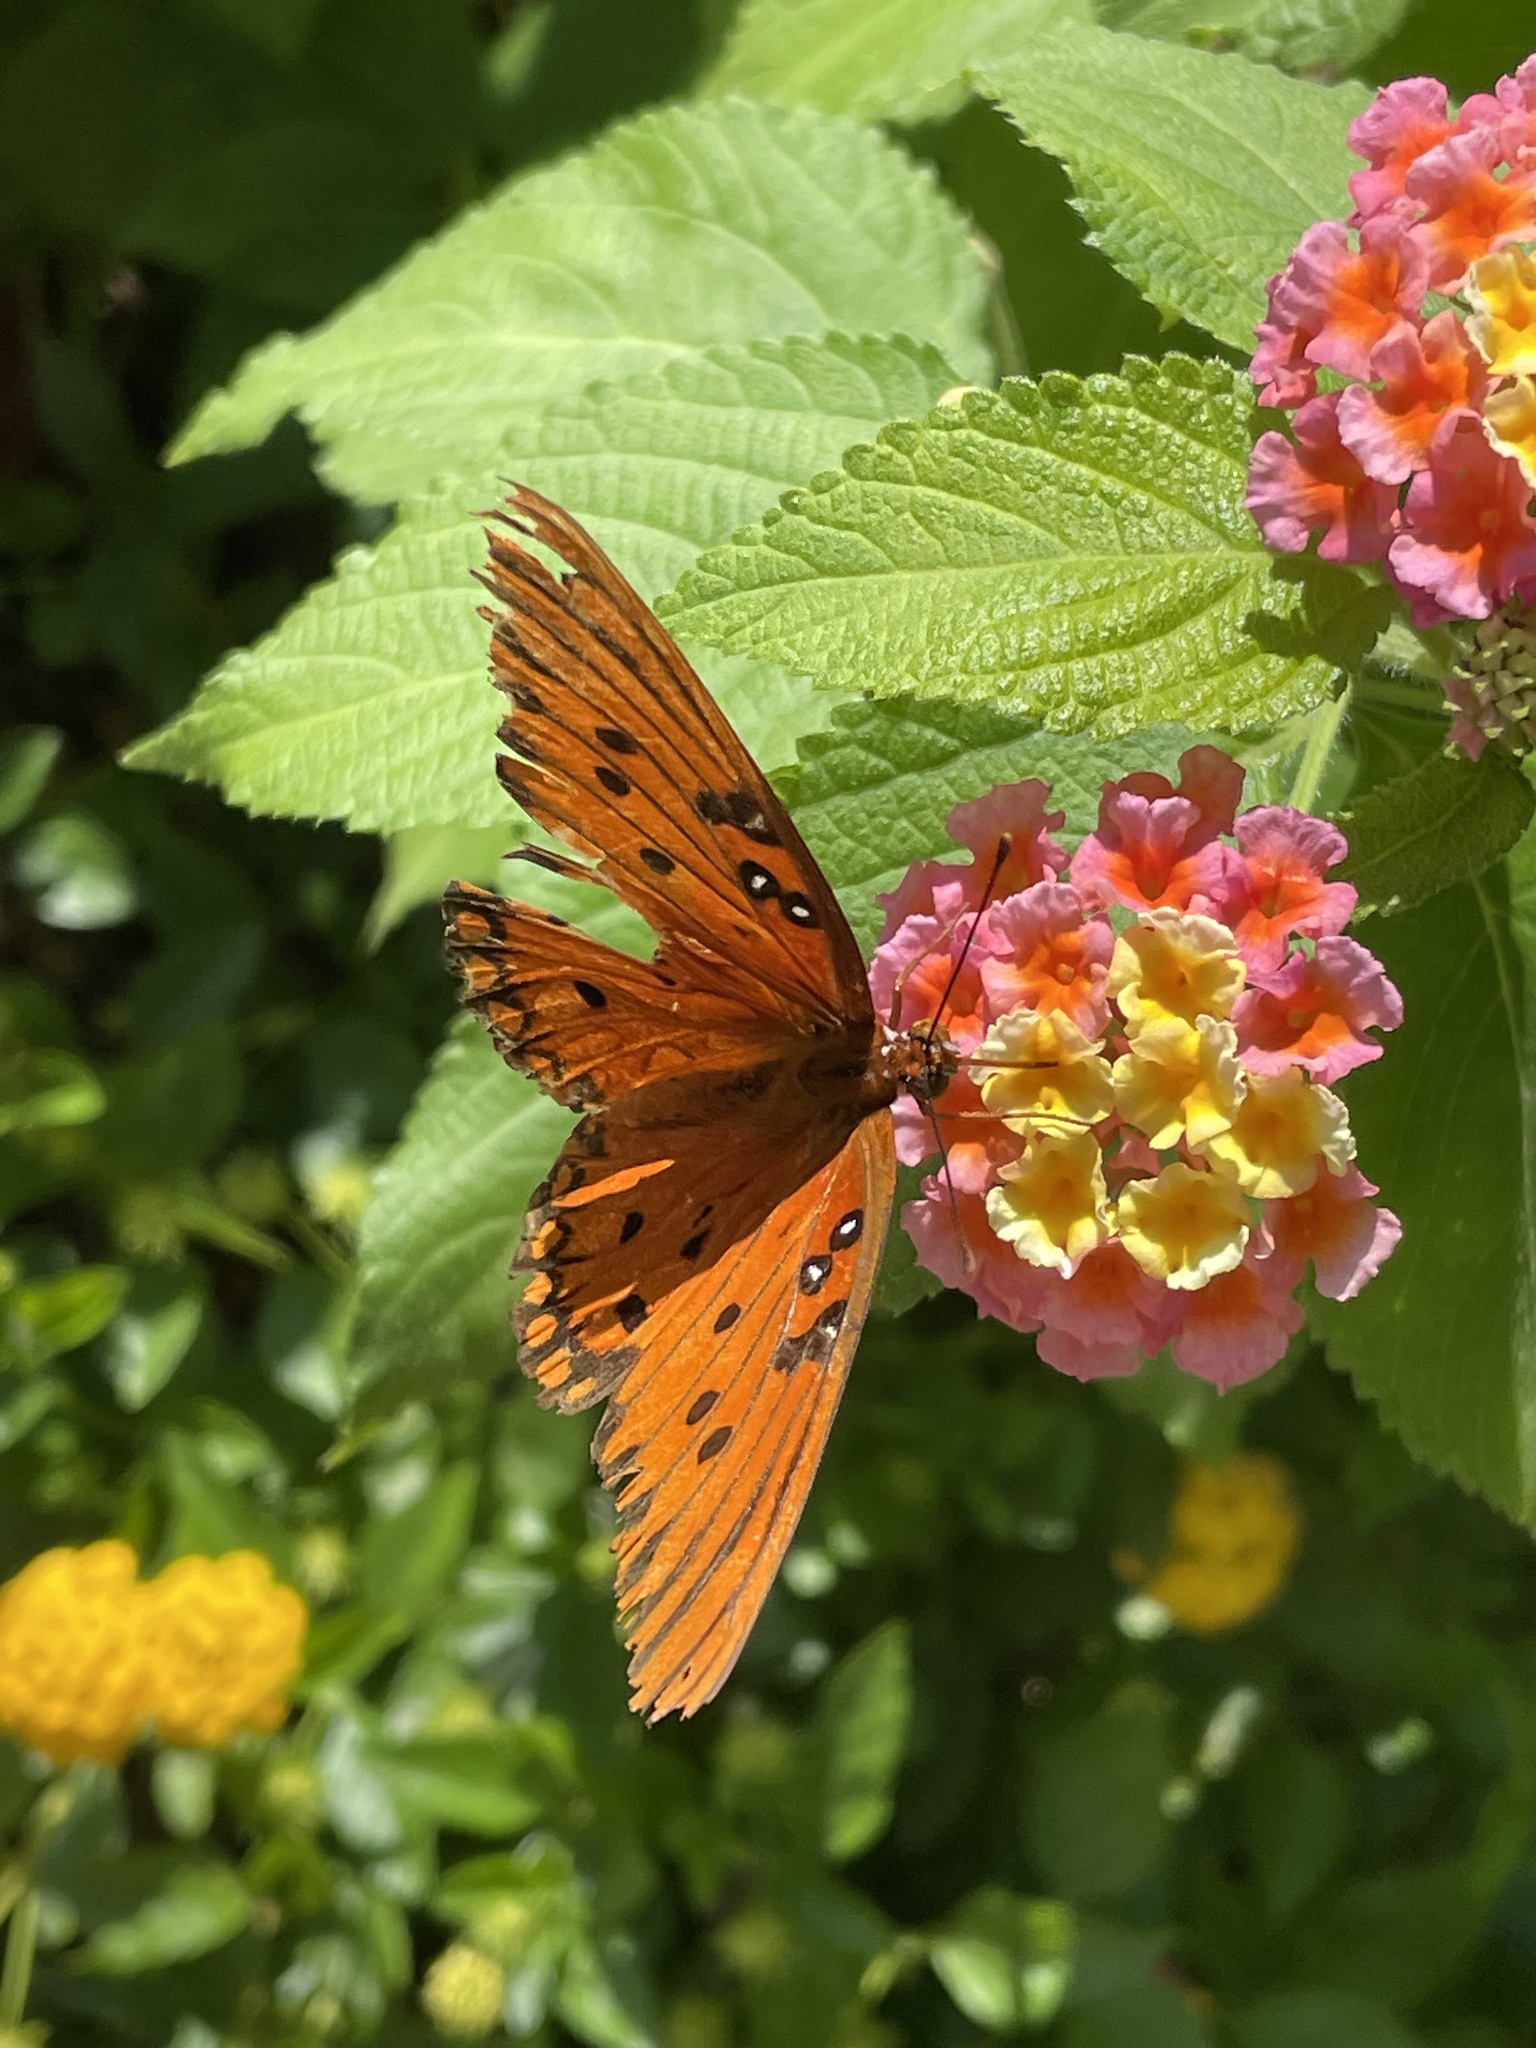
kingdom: Animalia
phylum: Arthropoda
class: Insecta
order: Lepidoptera
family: Nymphalidae
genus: Dione
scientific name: Dione vanillae
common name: Gulf fritillary
